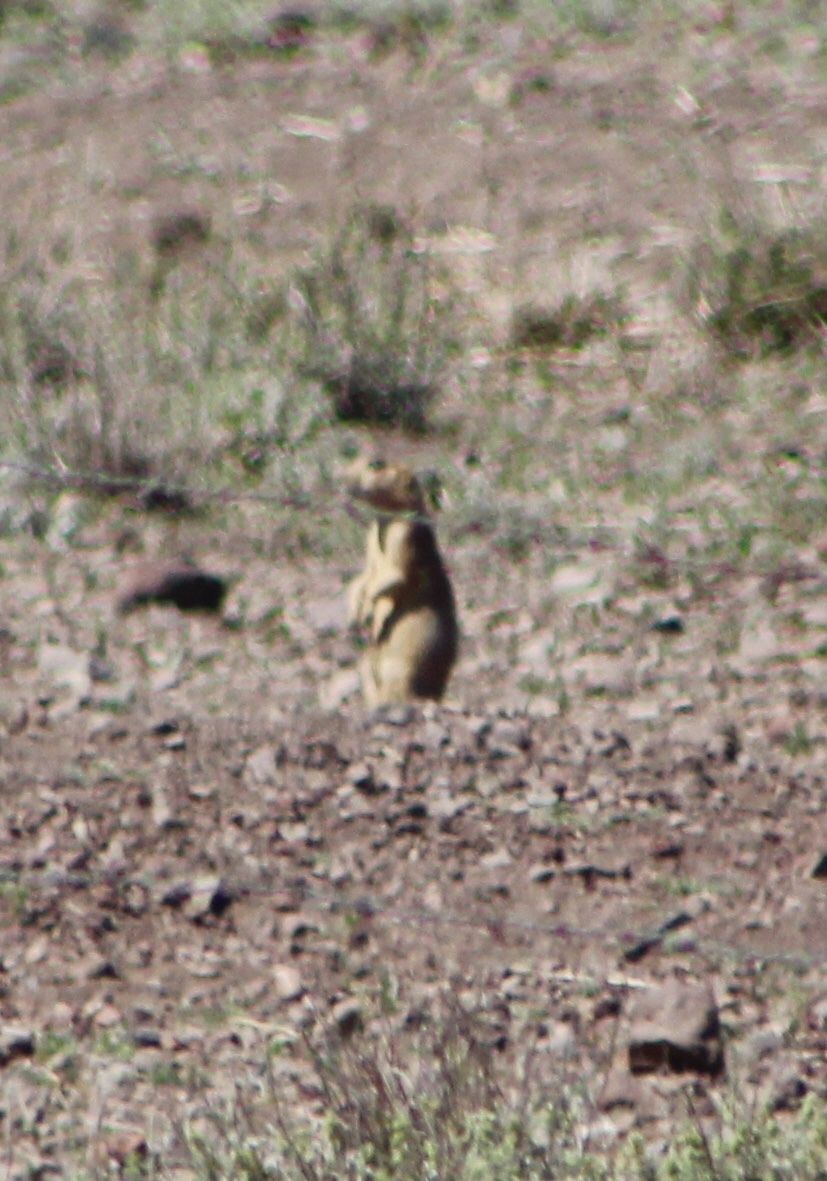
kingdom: Animalia
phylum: Chordata
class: Mammalia
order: Rodentia
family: Sciuridae
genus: Cynomys
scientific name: Cynomys gunnisoni
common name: Gunnison's prairie dog
